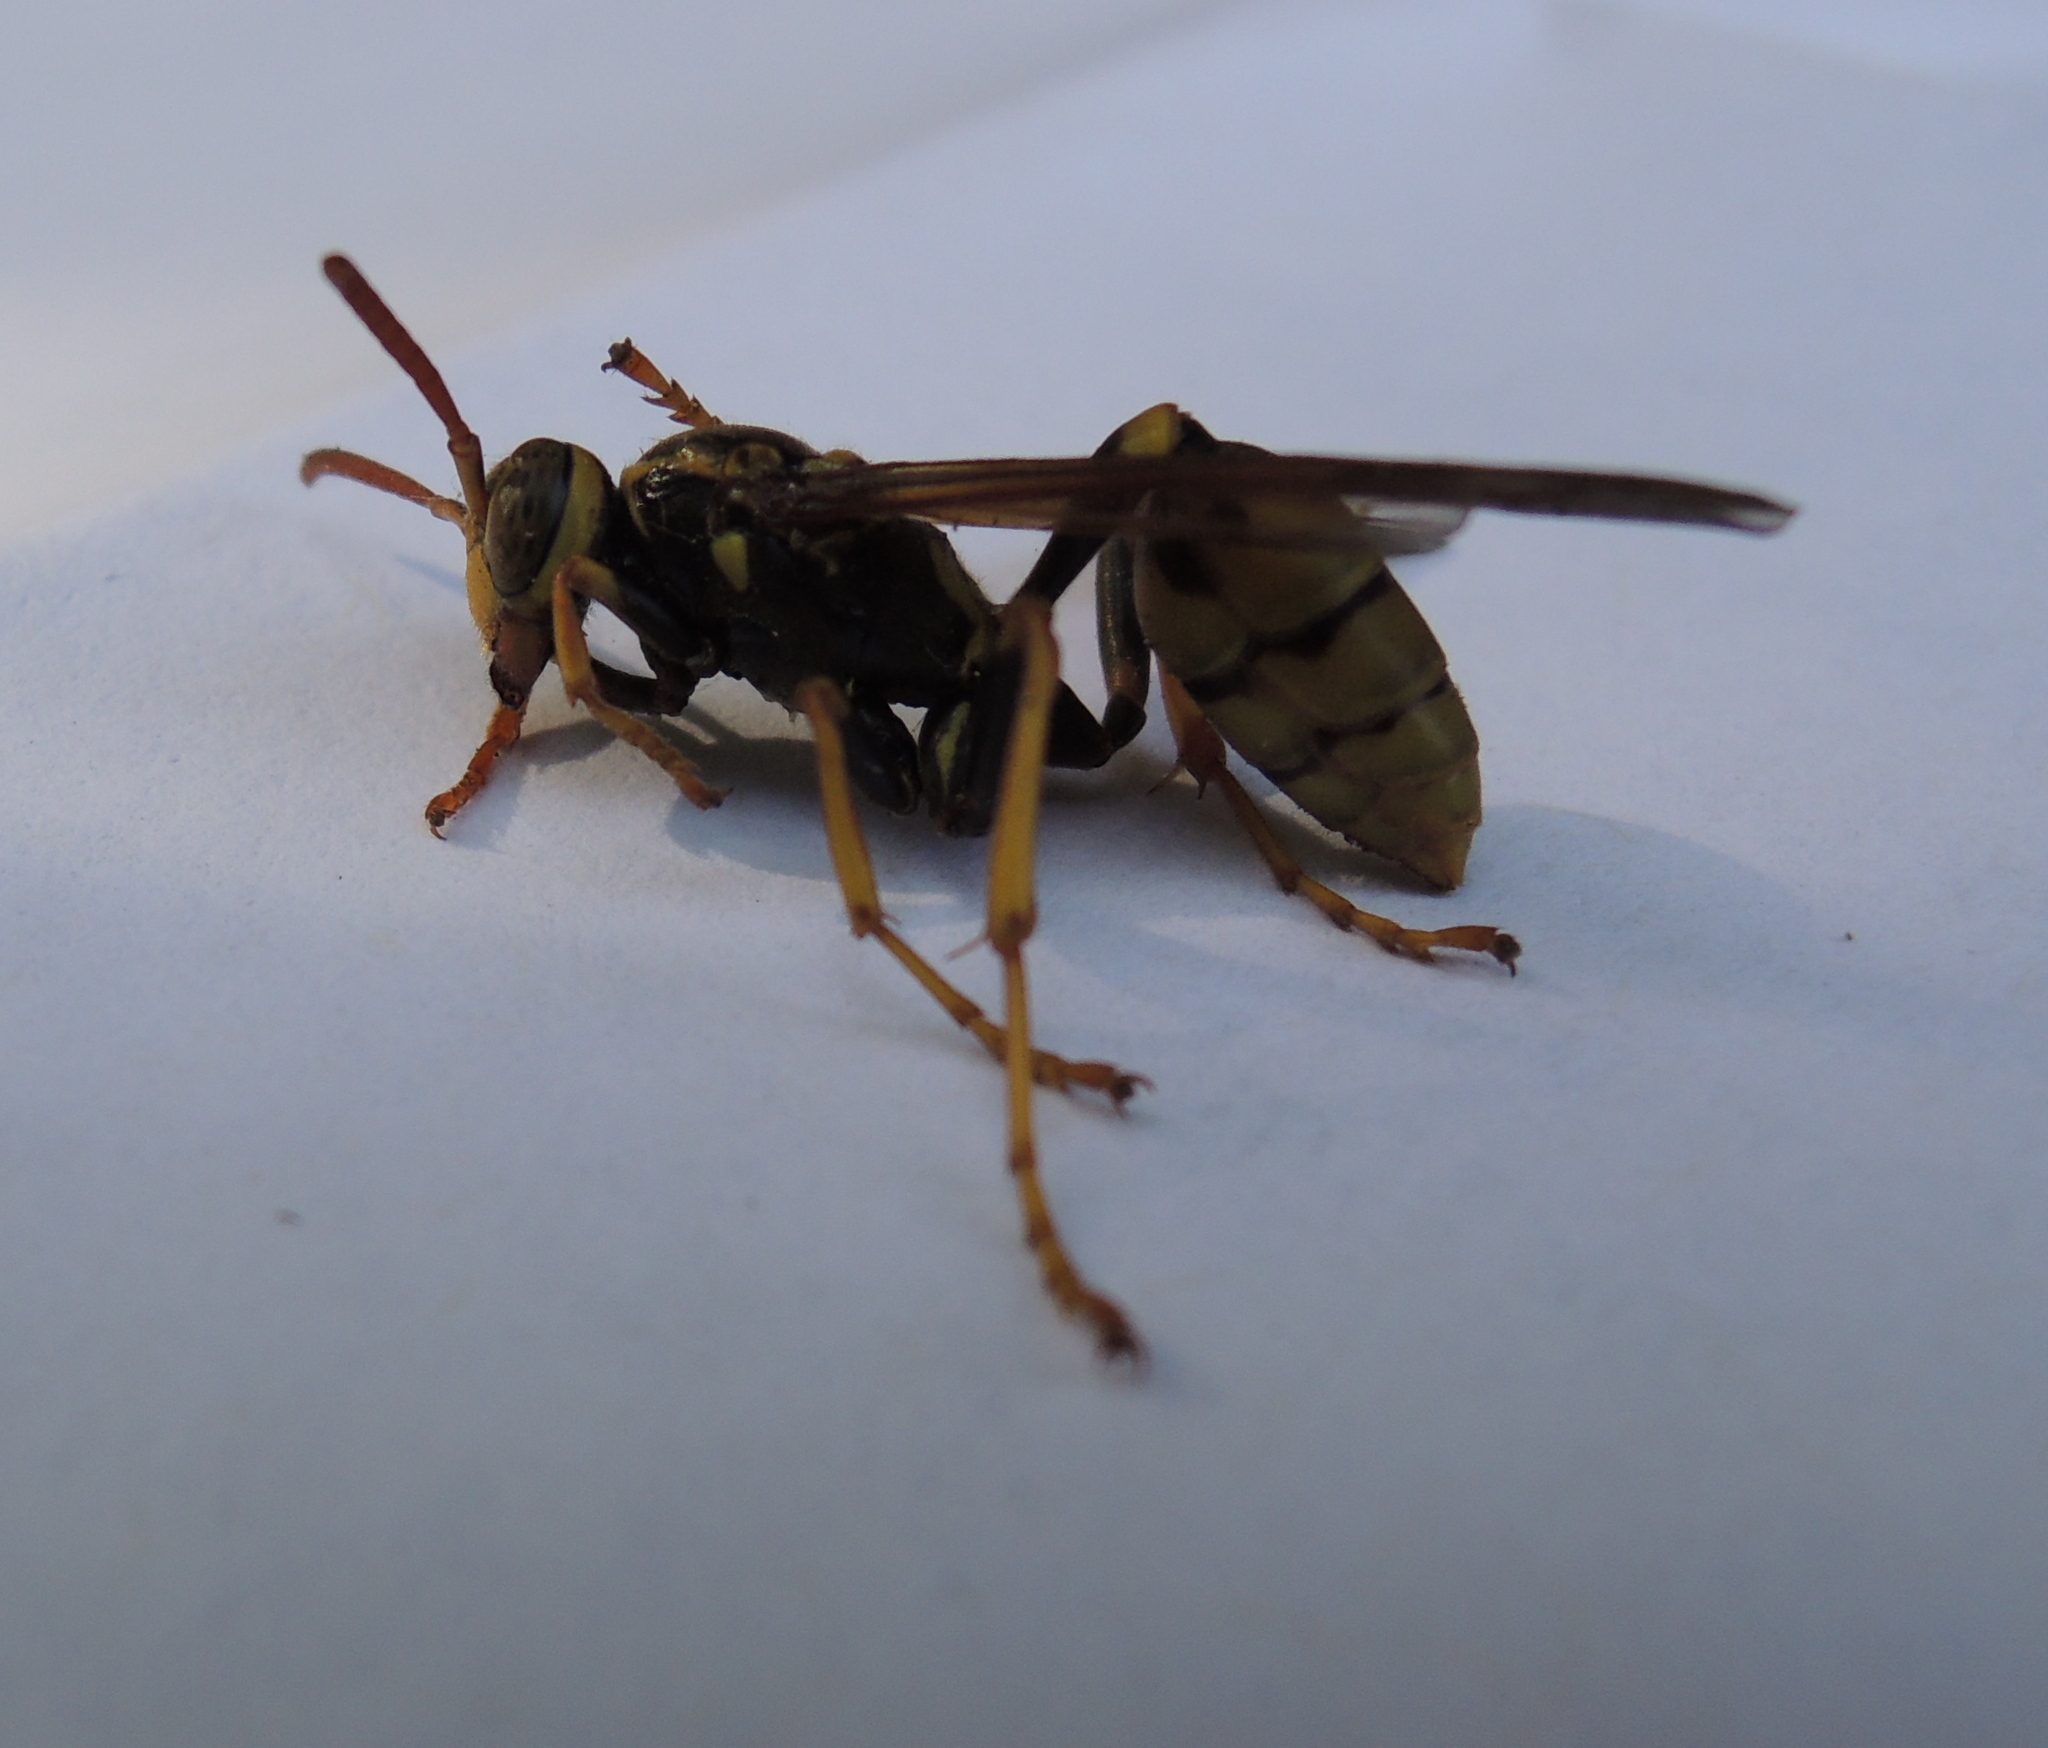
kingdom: Animalia
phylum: Arthropoda
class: Insecta
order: Hymenoptera
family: Vespidae
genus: Mischocyttarus
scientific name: Mischocyttarus flavitarsis
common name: Wasp
